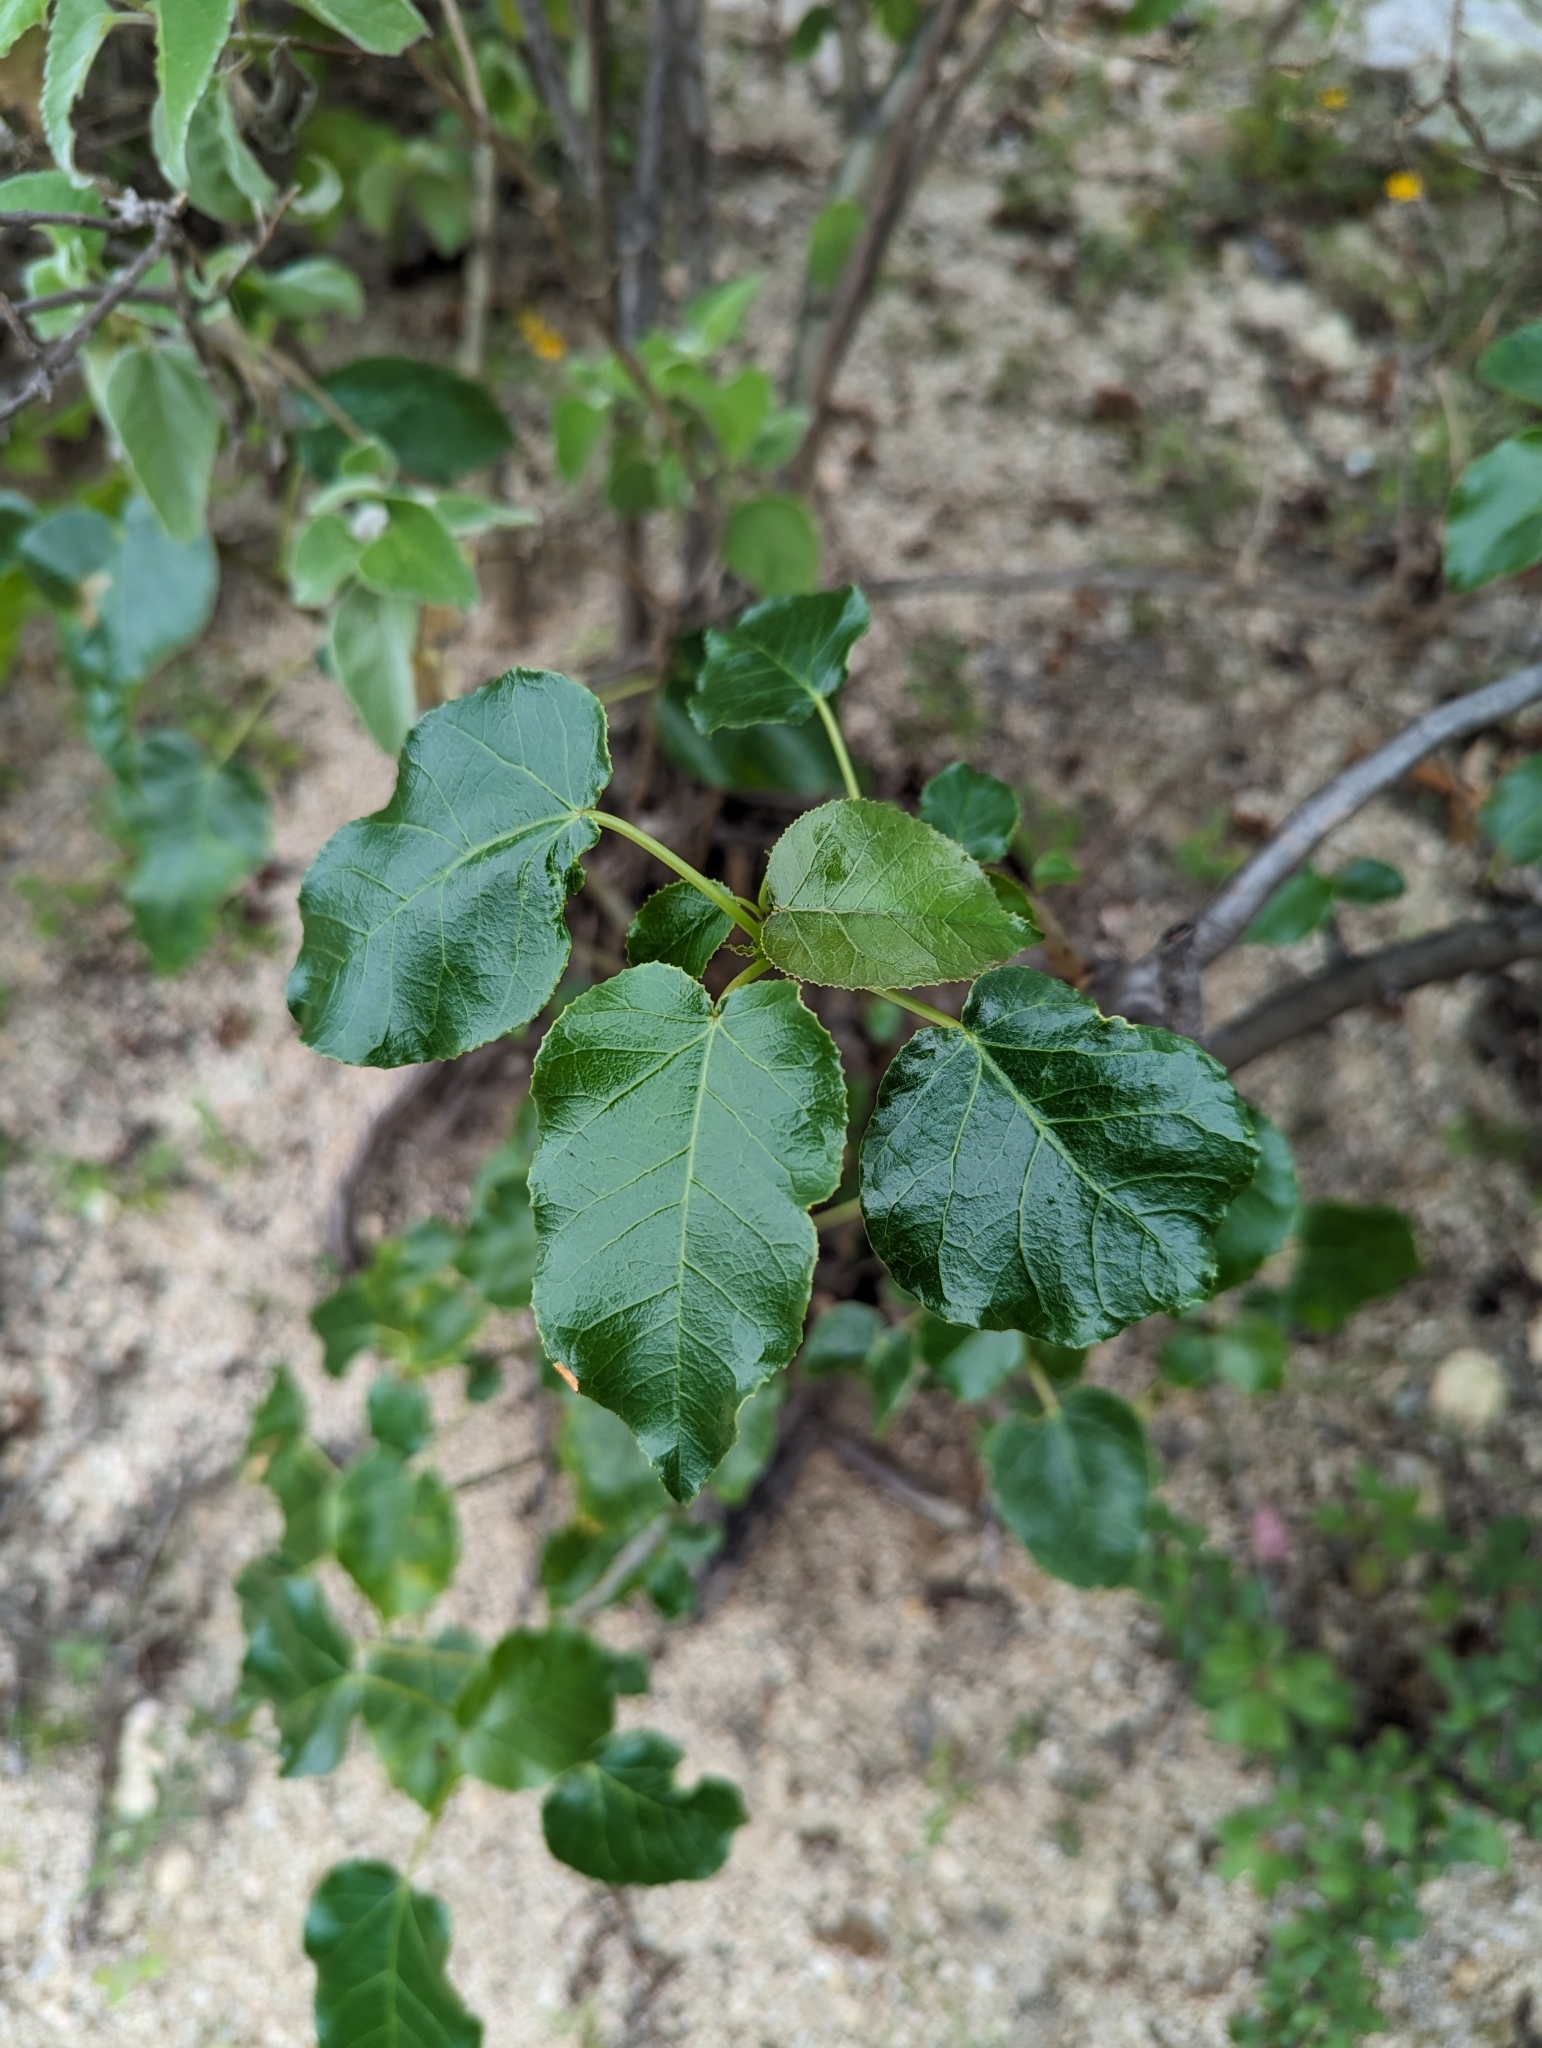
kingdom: Plantae
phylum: Tracheophyta
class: Magnoliopsida
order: Malpighiales
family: Euphorbiaceae
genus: Jatropha
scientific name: Jatropha vernicosa
